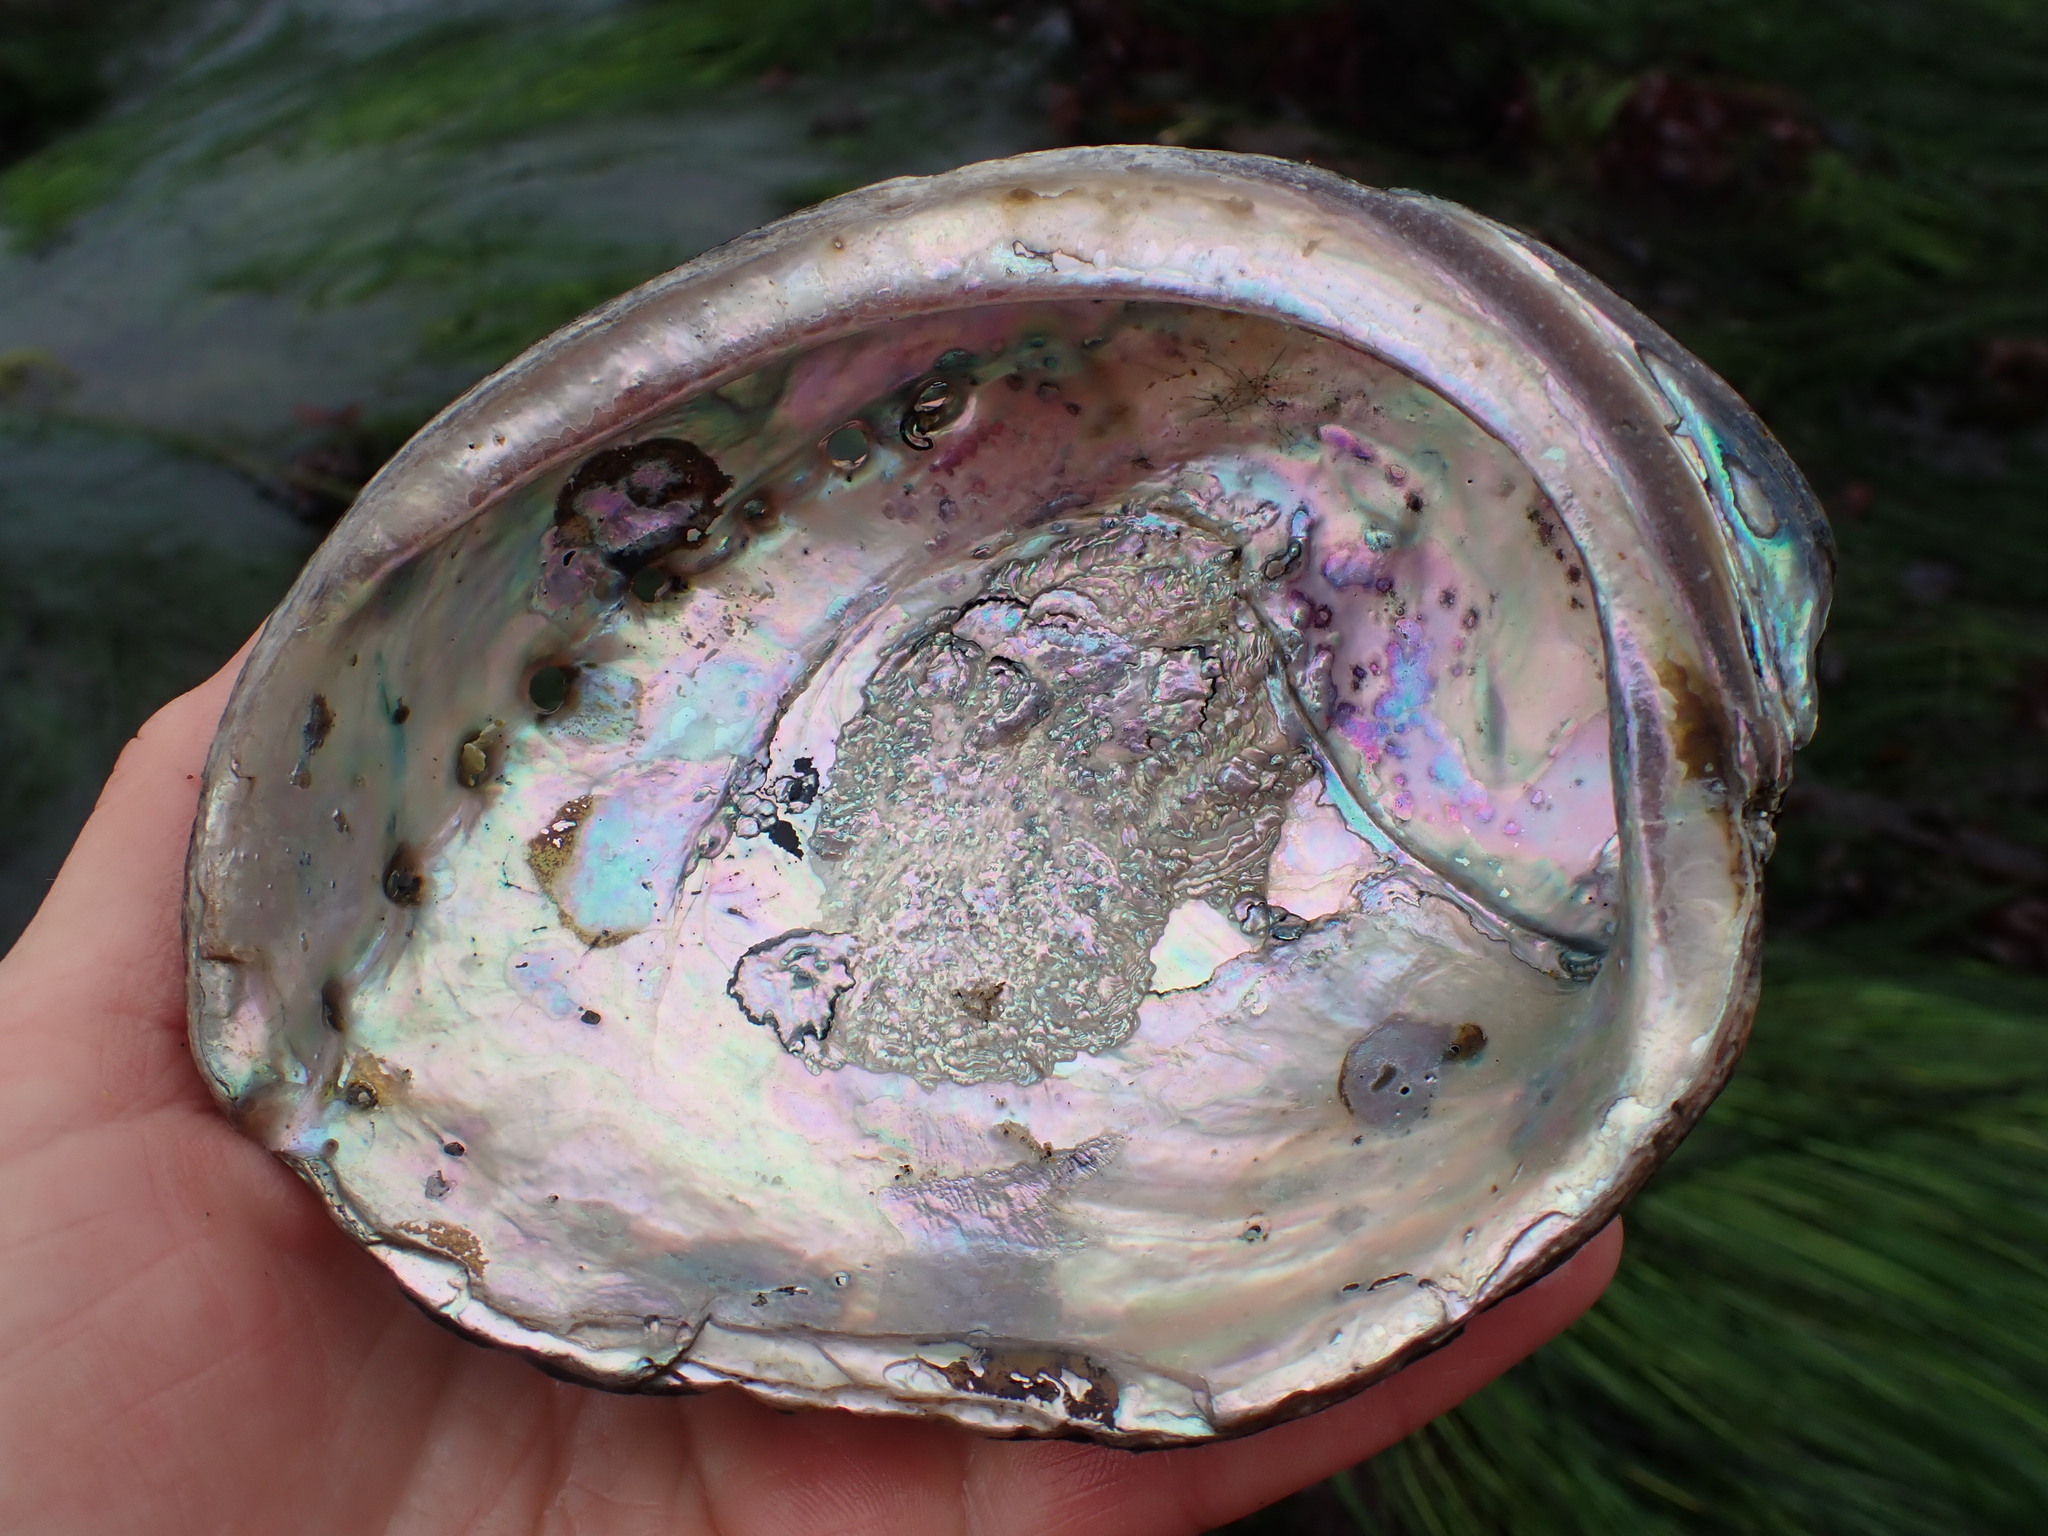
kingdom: Animalia
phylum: Mollusca
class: Gastropoda
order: Lepetellida
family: Haliotidae
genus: Haliotis
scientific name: Haliotis cracherodii
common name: Black abalone
